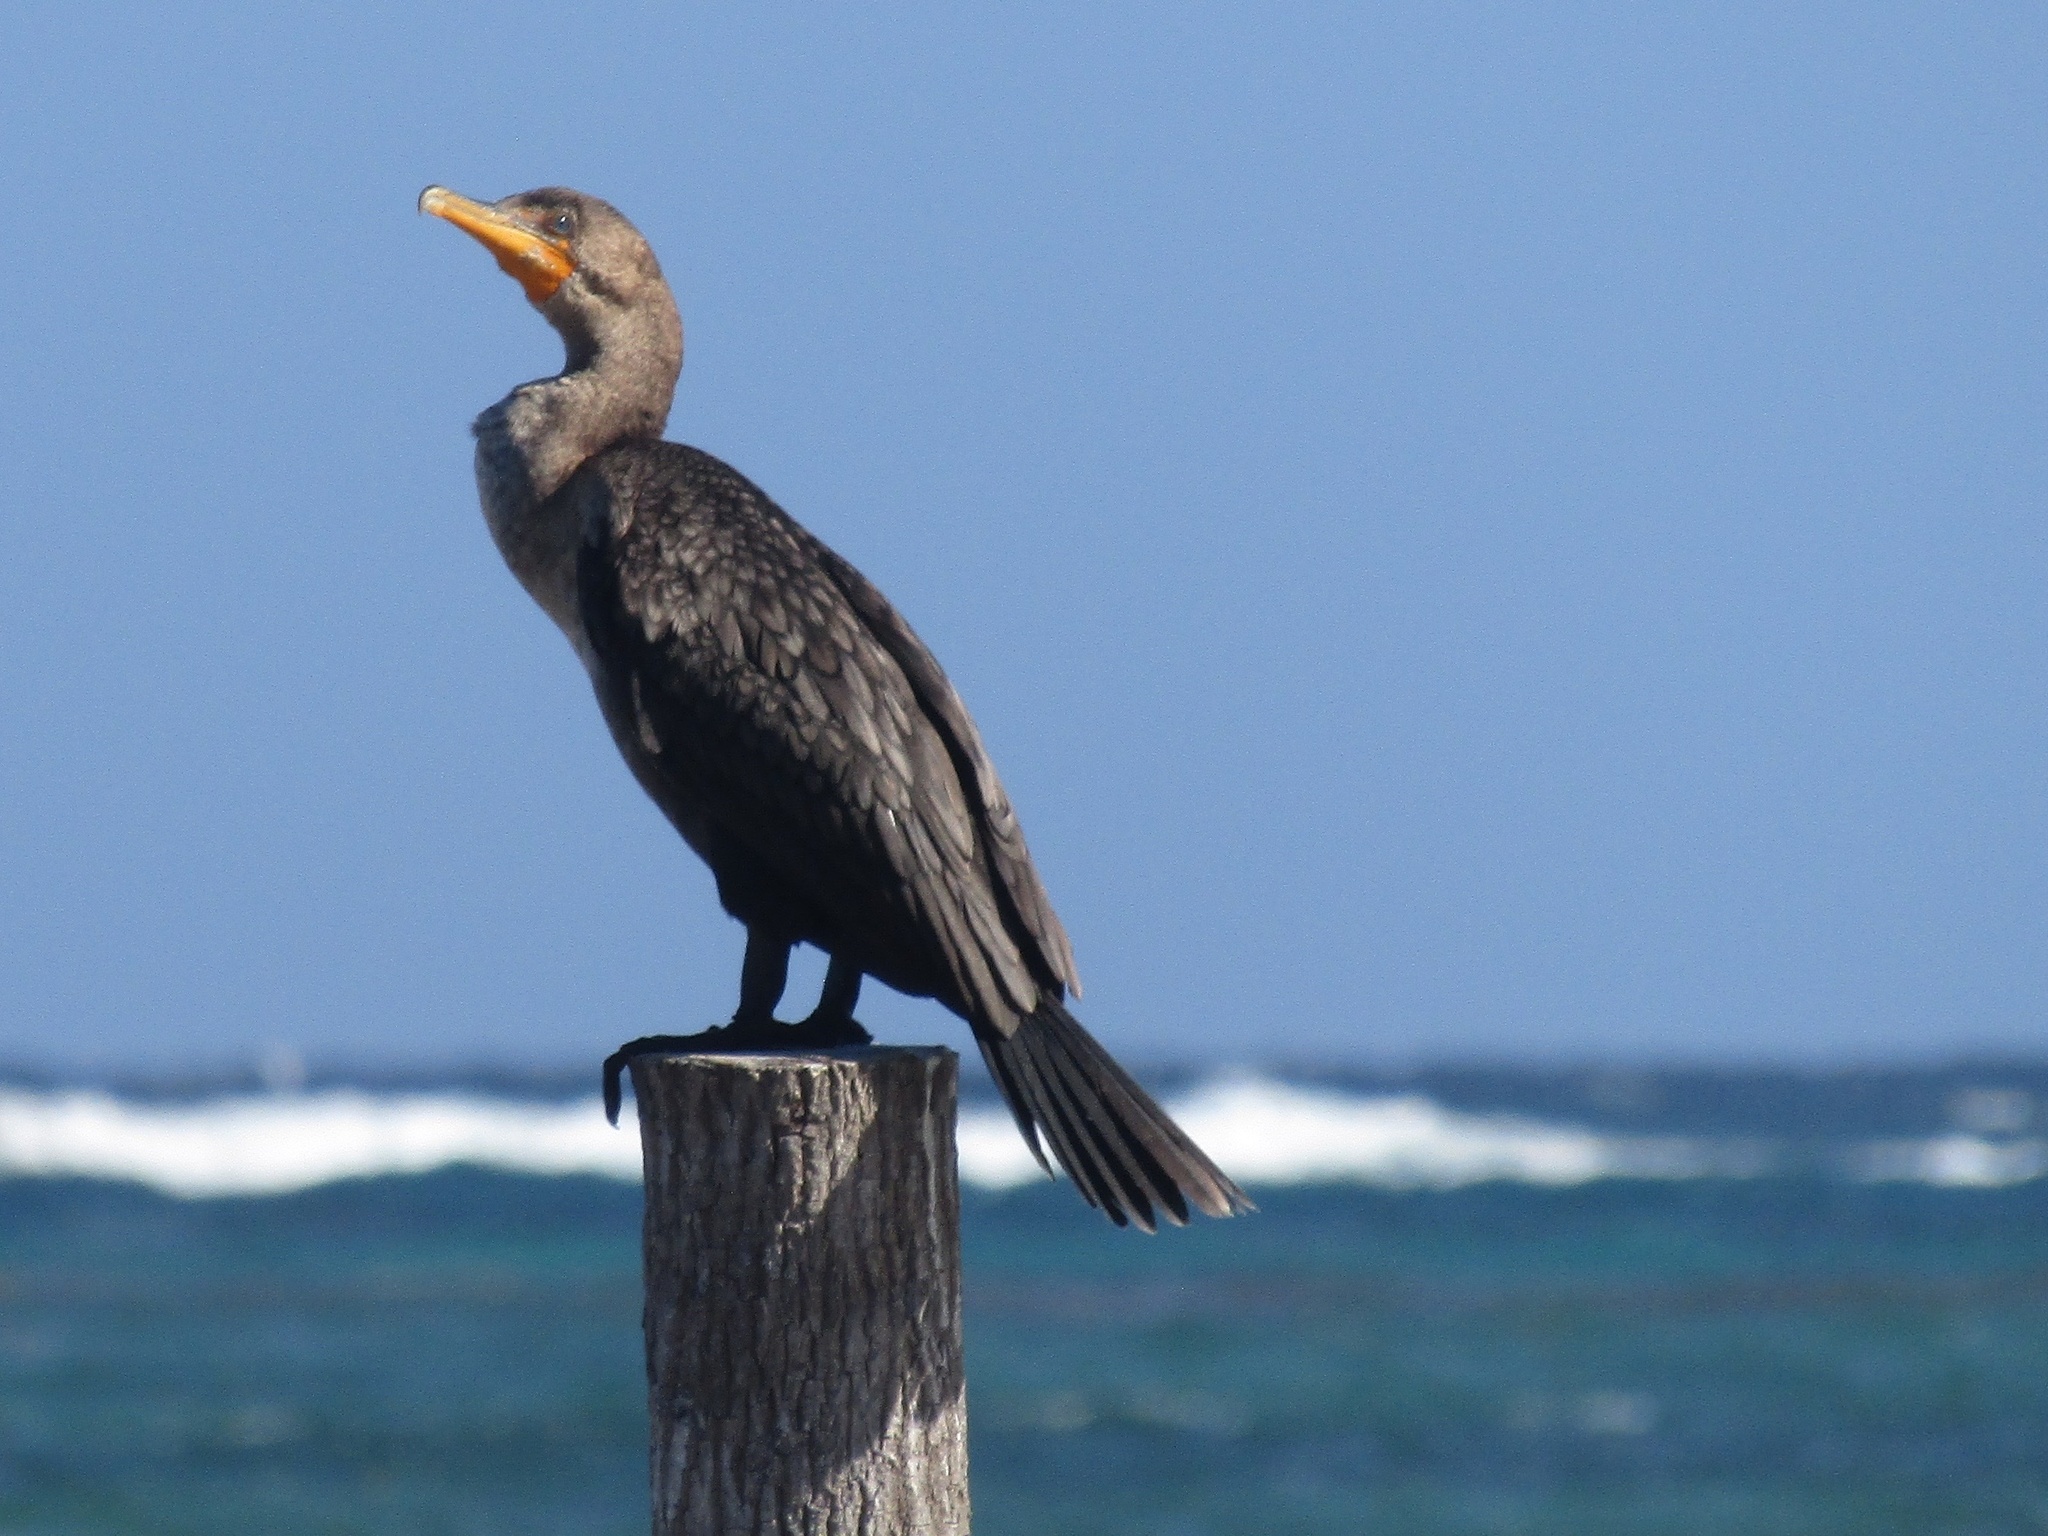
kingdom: Animalia
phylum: Chordata
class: Aves
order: Suliformes
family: Phalacrocoracidae
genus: Phalacrocorax
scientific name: Phalacrocorax auritus
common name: Double-crested cormorant
